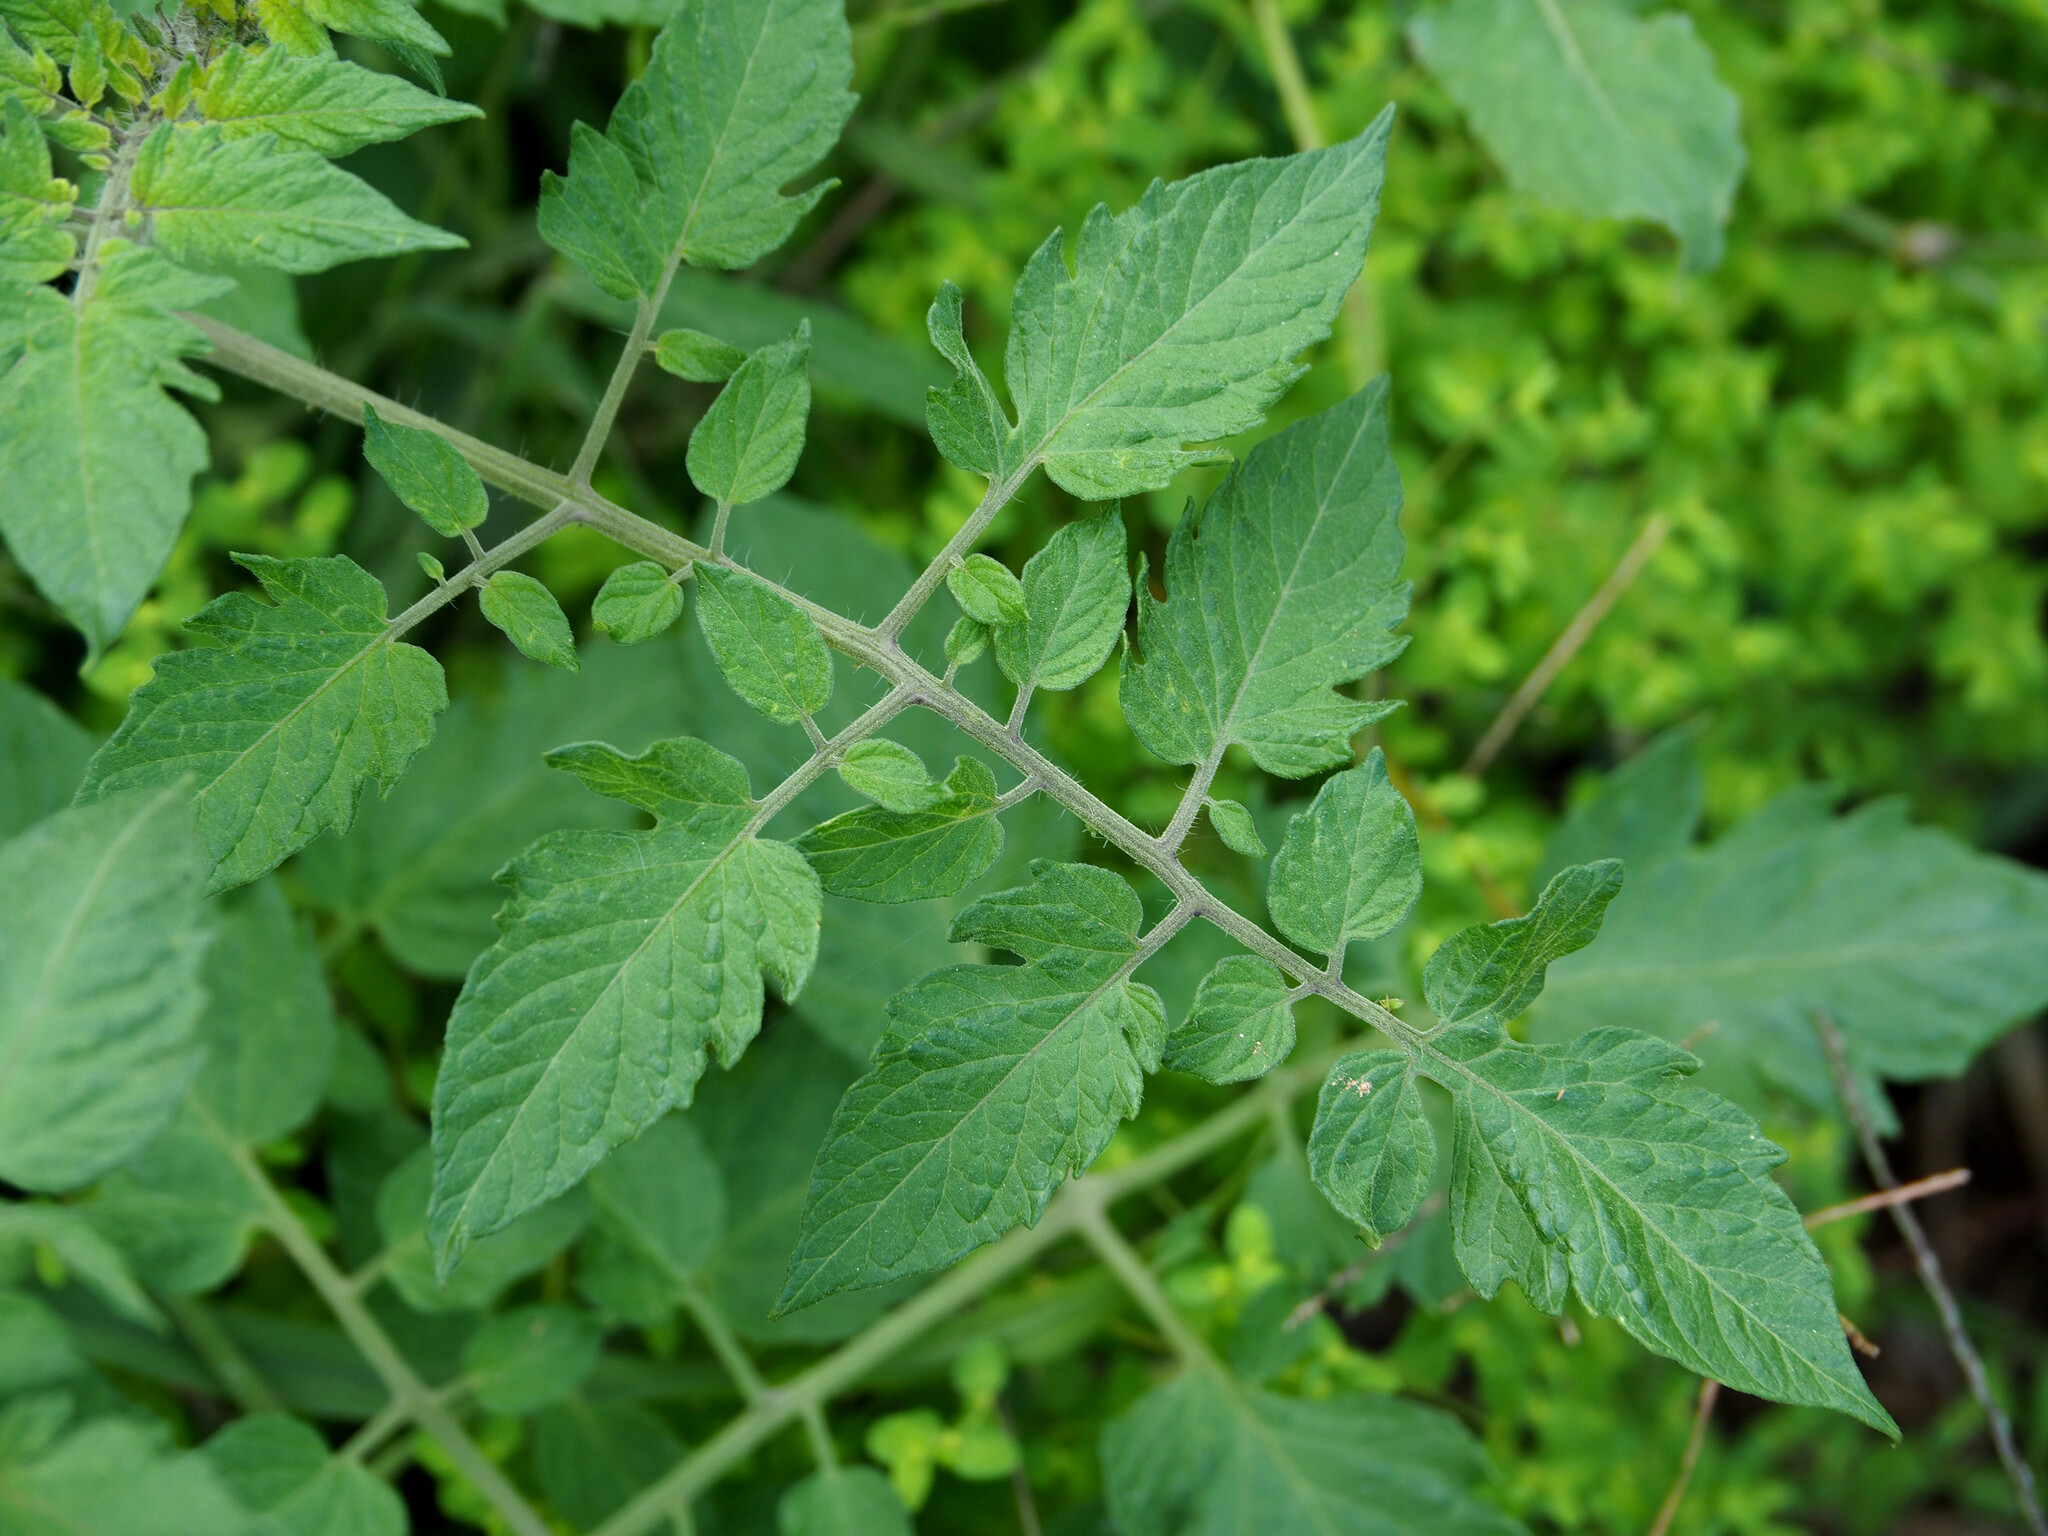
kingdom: Plantae
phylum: Tracheophyta
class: Magnoliopsida
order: Solanales
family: Solanaceae
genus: Solanum
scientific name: Solanum lycopersicum
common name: Garden tomato
